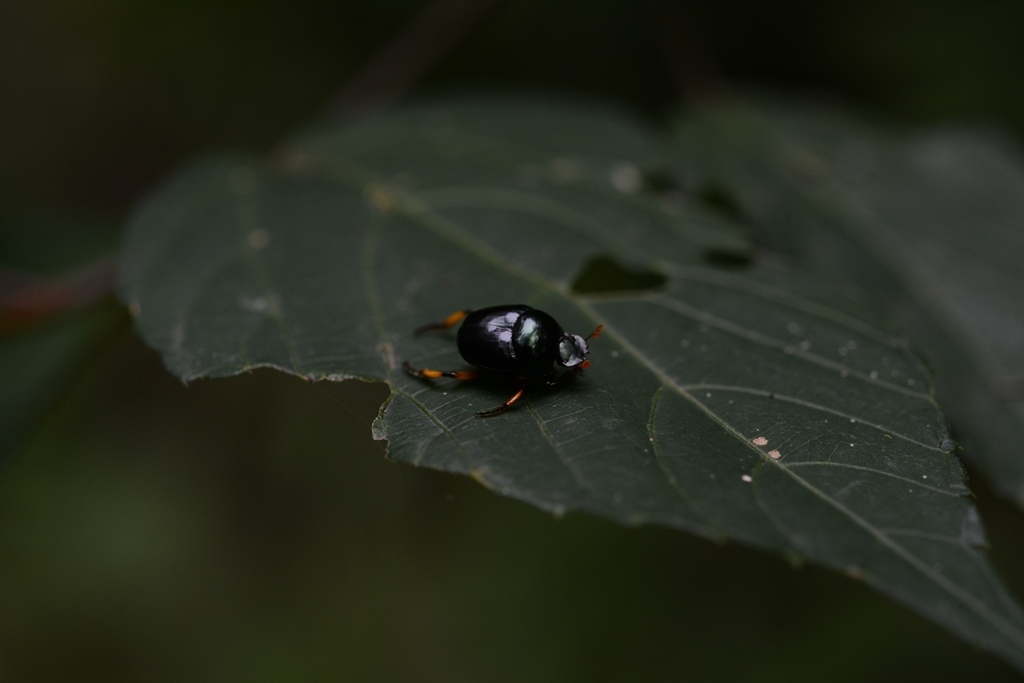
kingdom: Animalia
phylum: Arthropoda
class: Insecta
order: Coleoptera
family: Scarabaeidae
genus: Canthon
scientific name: Canthon femoralis
